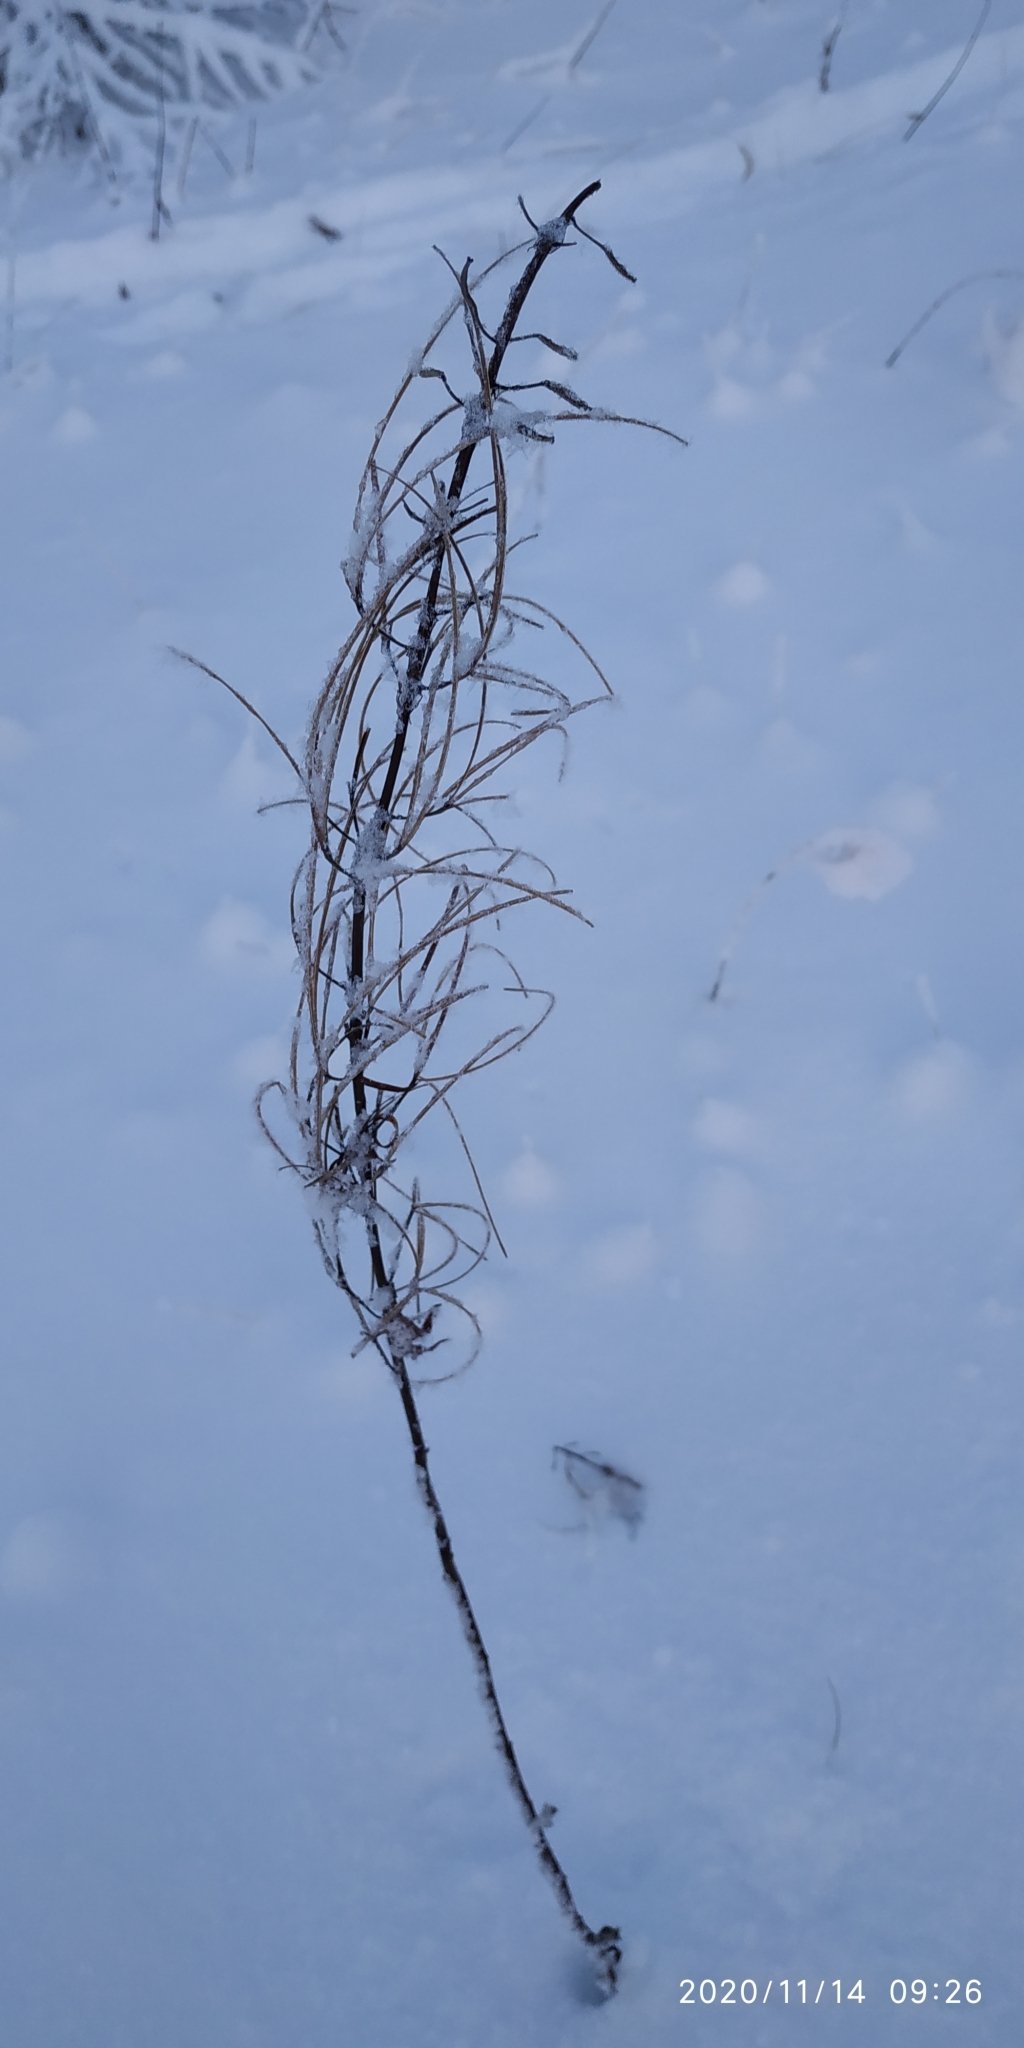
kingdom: Plantae
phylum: Tracheophyta
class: Magnoliopsida
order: Myrtales
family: Onagraceae
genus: Chamaenerion
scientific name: Chamaenerion angustifolium
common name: Fireweed
